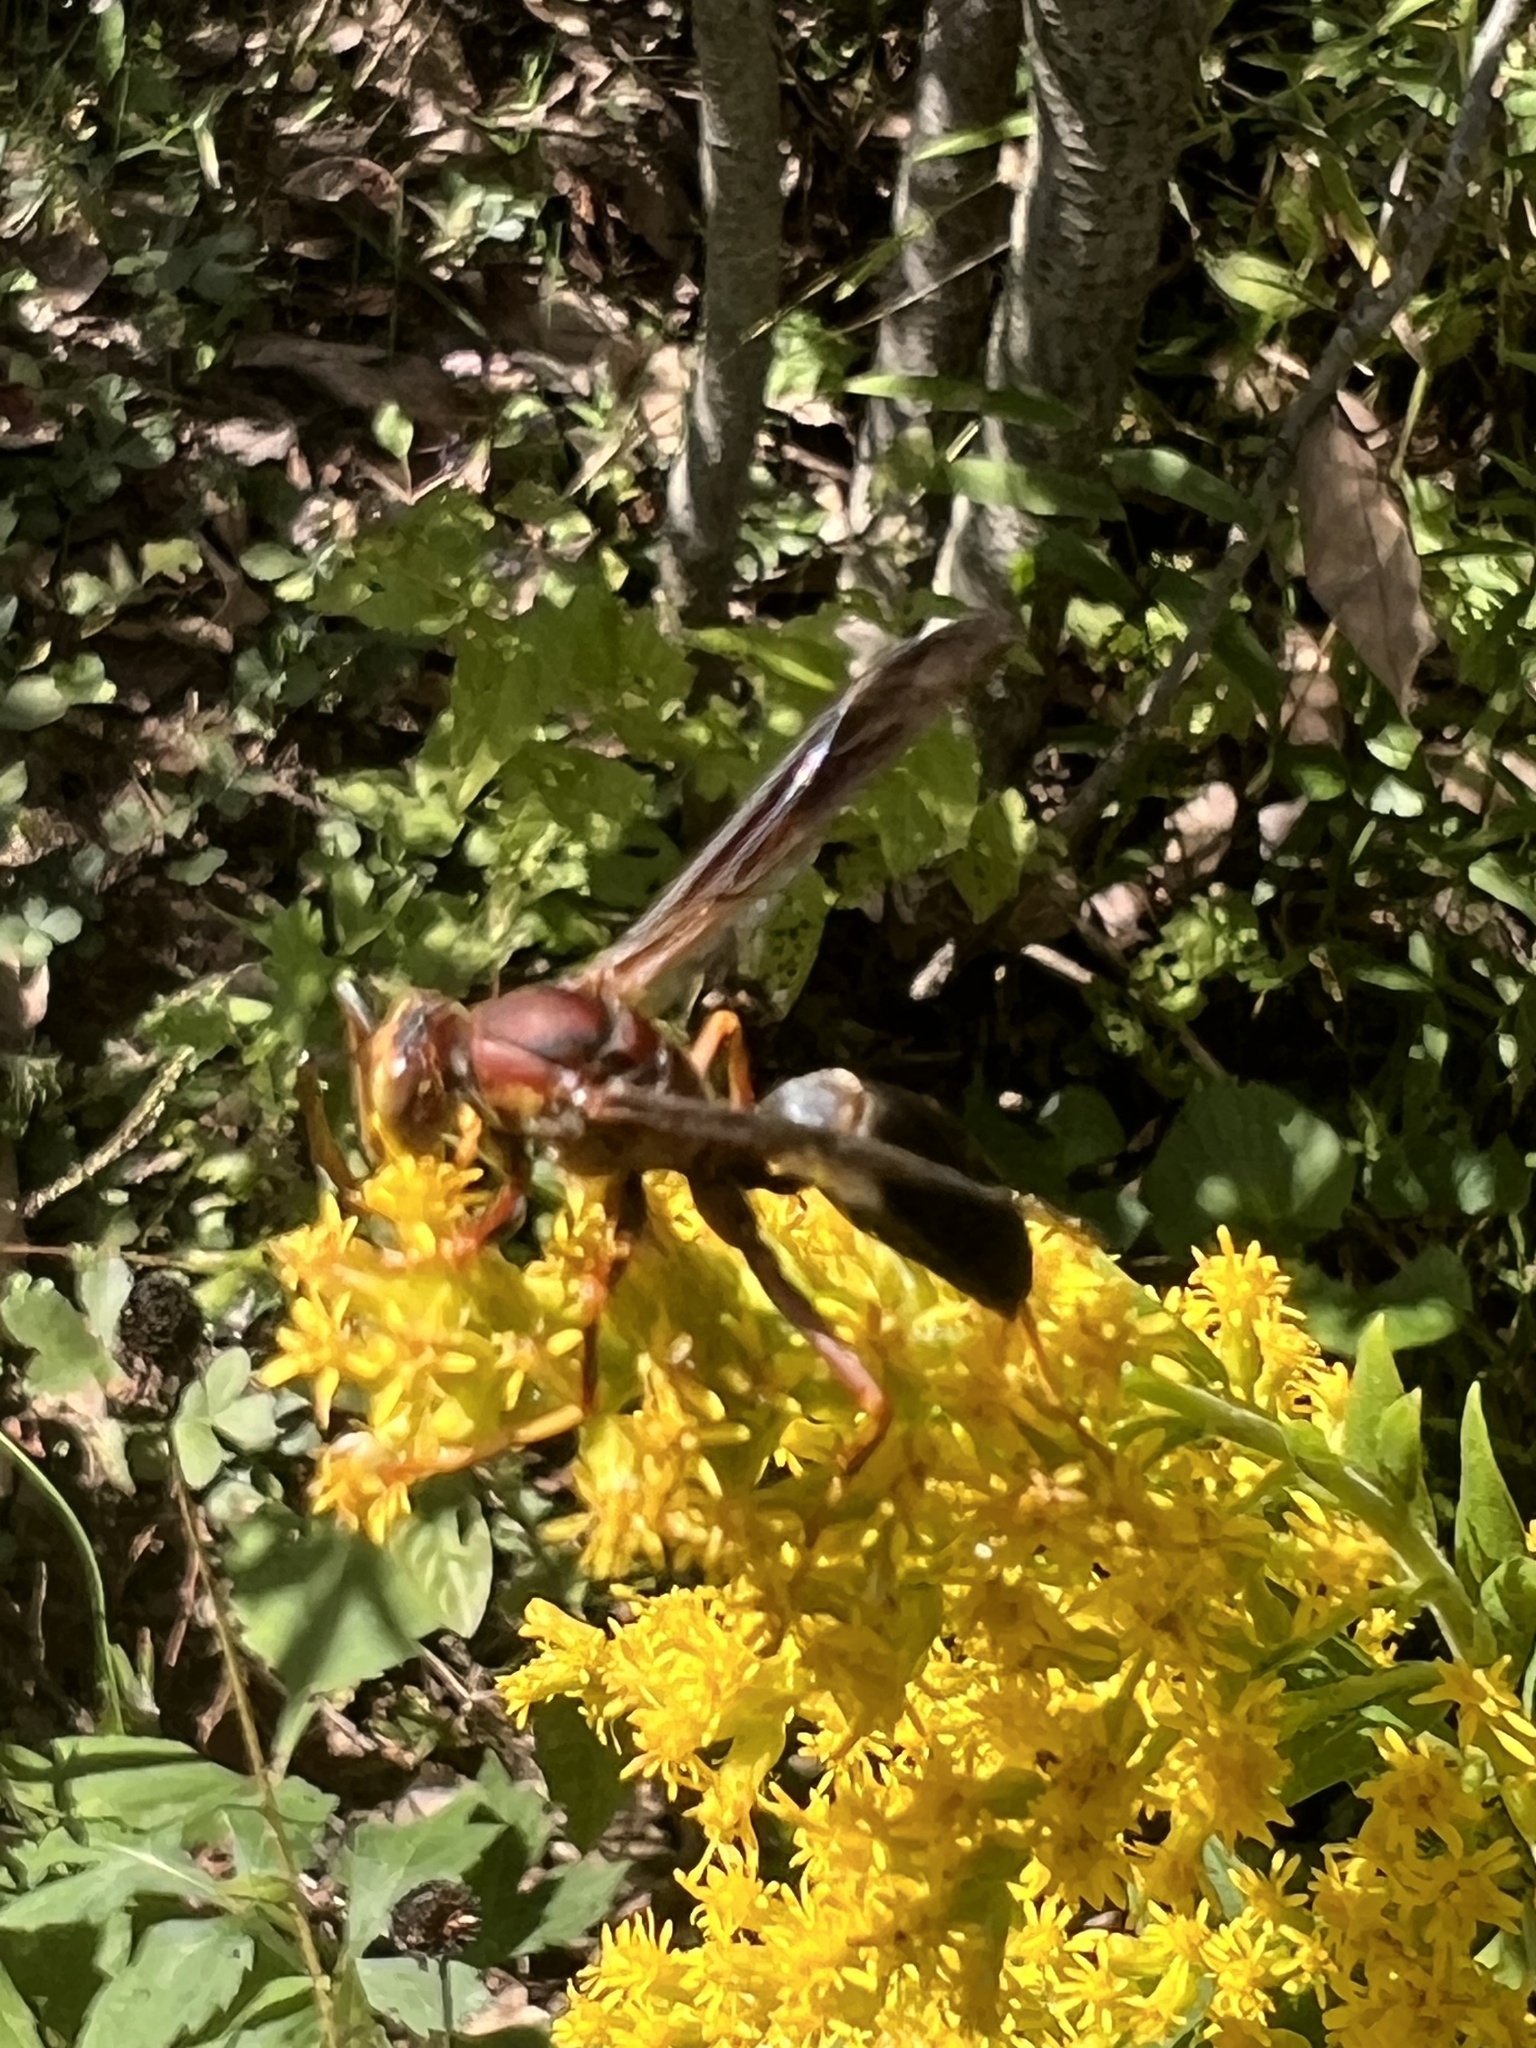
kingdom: Animalia
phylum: Arthropoda
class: Insecta
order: Hymenoptera
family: Eumenidae
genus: Polistes
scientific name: Polistes metricus
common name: Metric paper wasp
